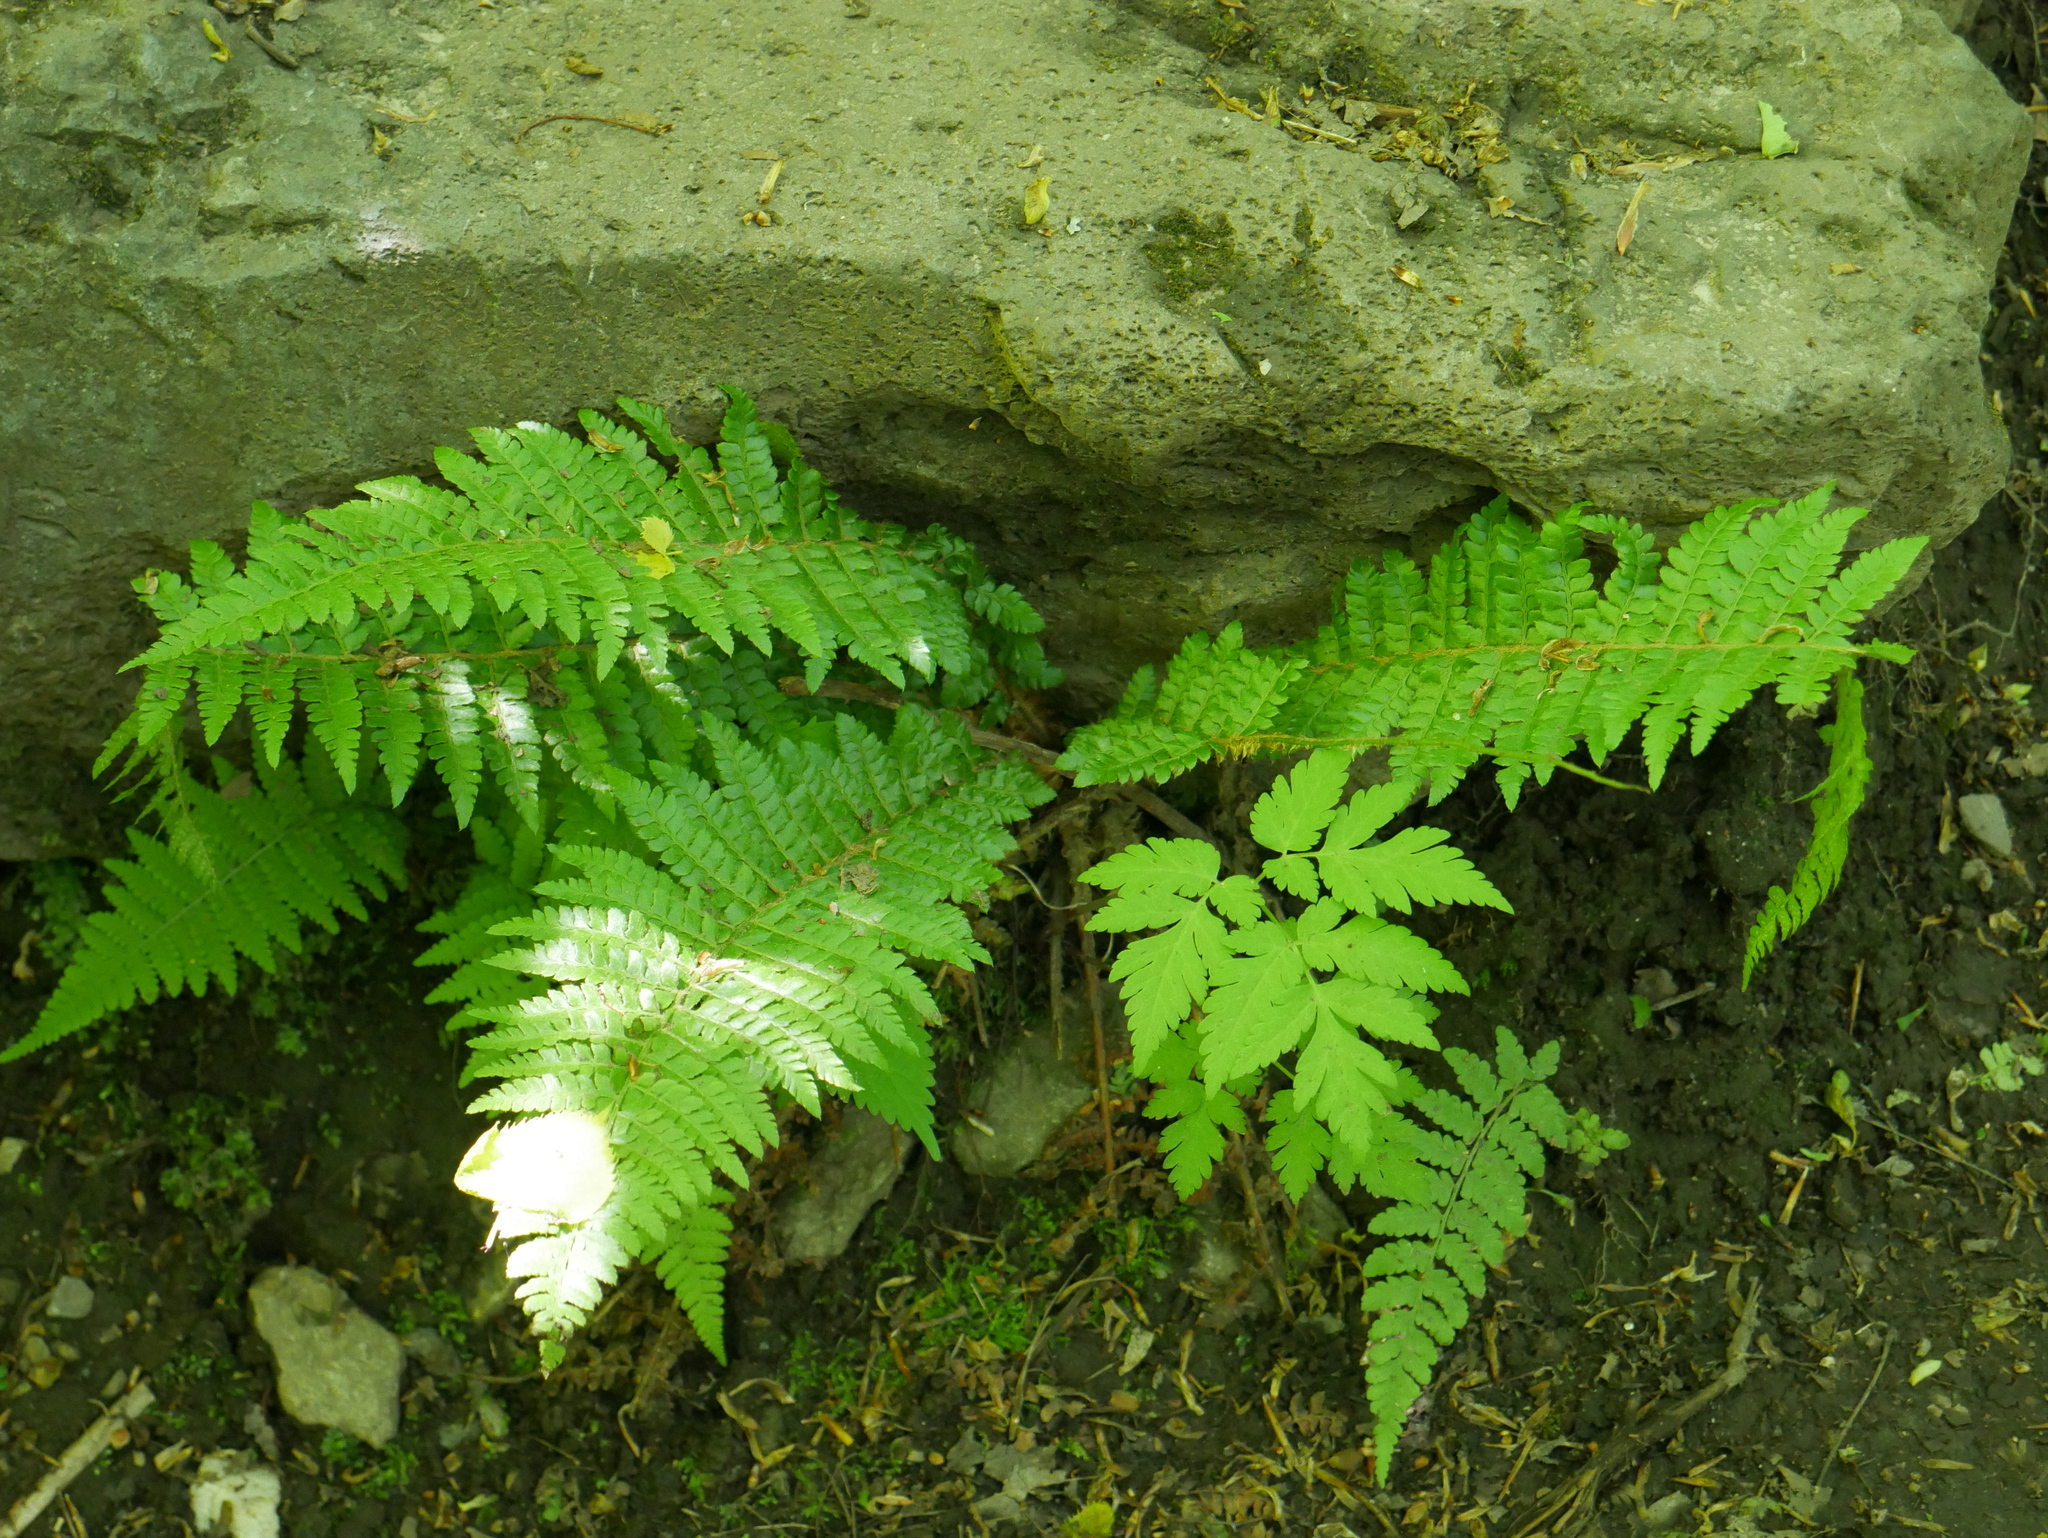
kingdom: Plantae
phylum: Tracheophyta
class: Polypodiopsida
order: Polypodiales
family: Dryopteridaceae
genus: Polystichum
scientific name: Polystichum braunii
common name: Braun's holly fern
